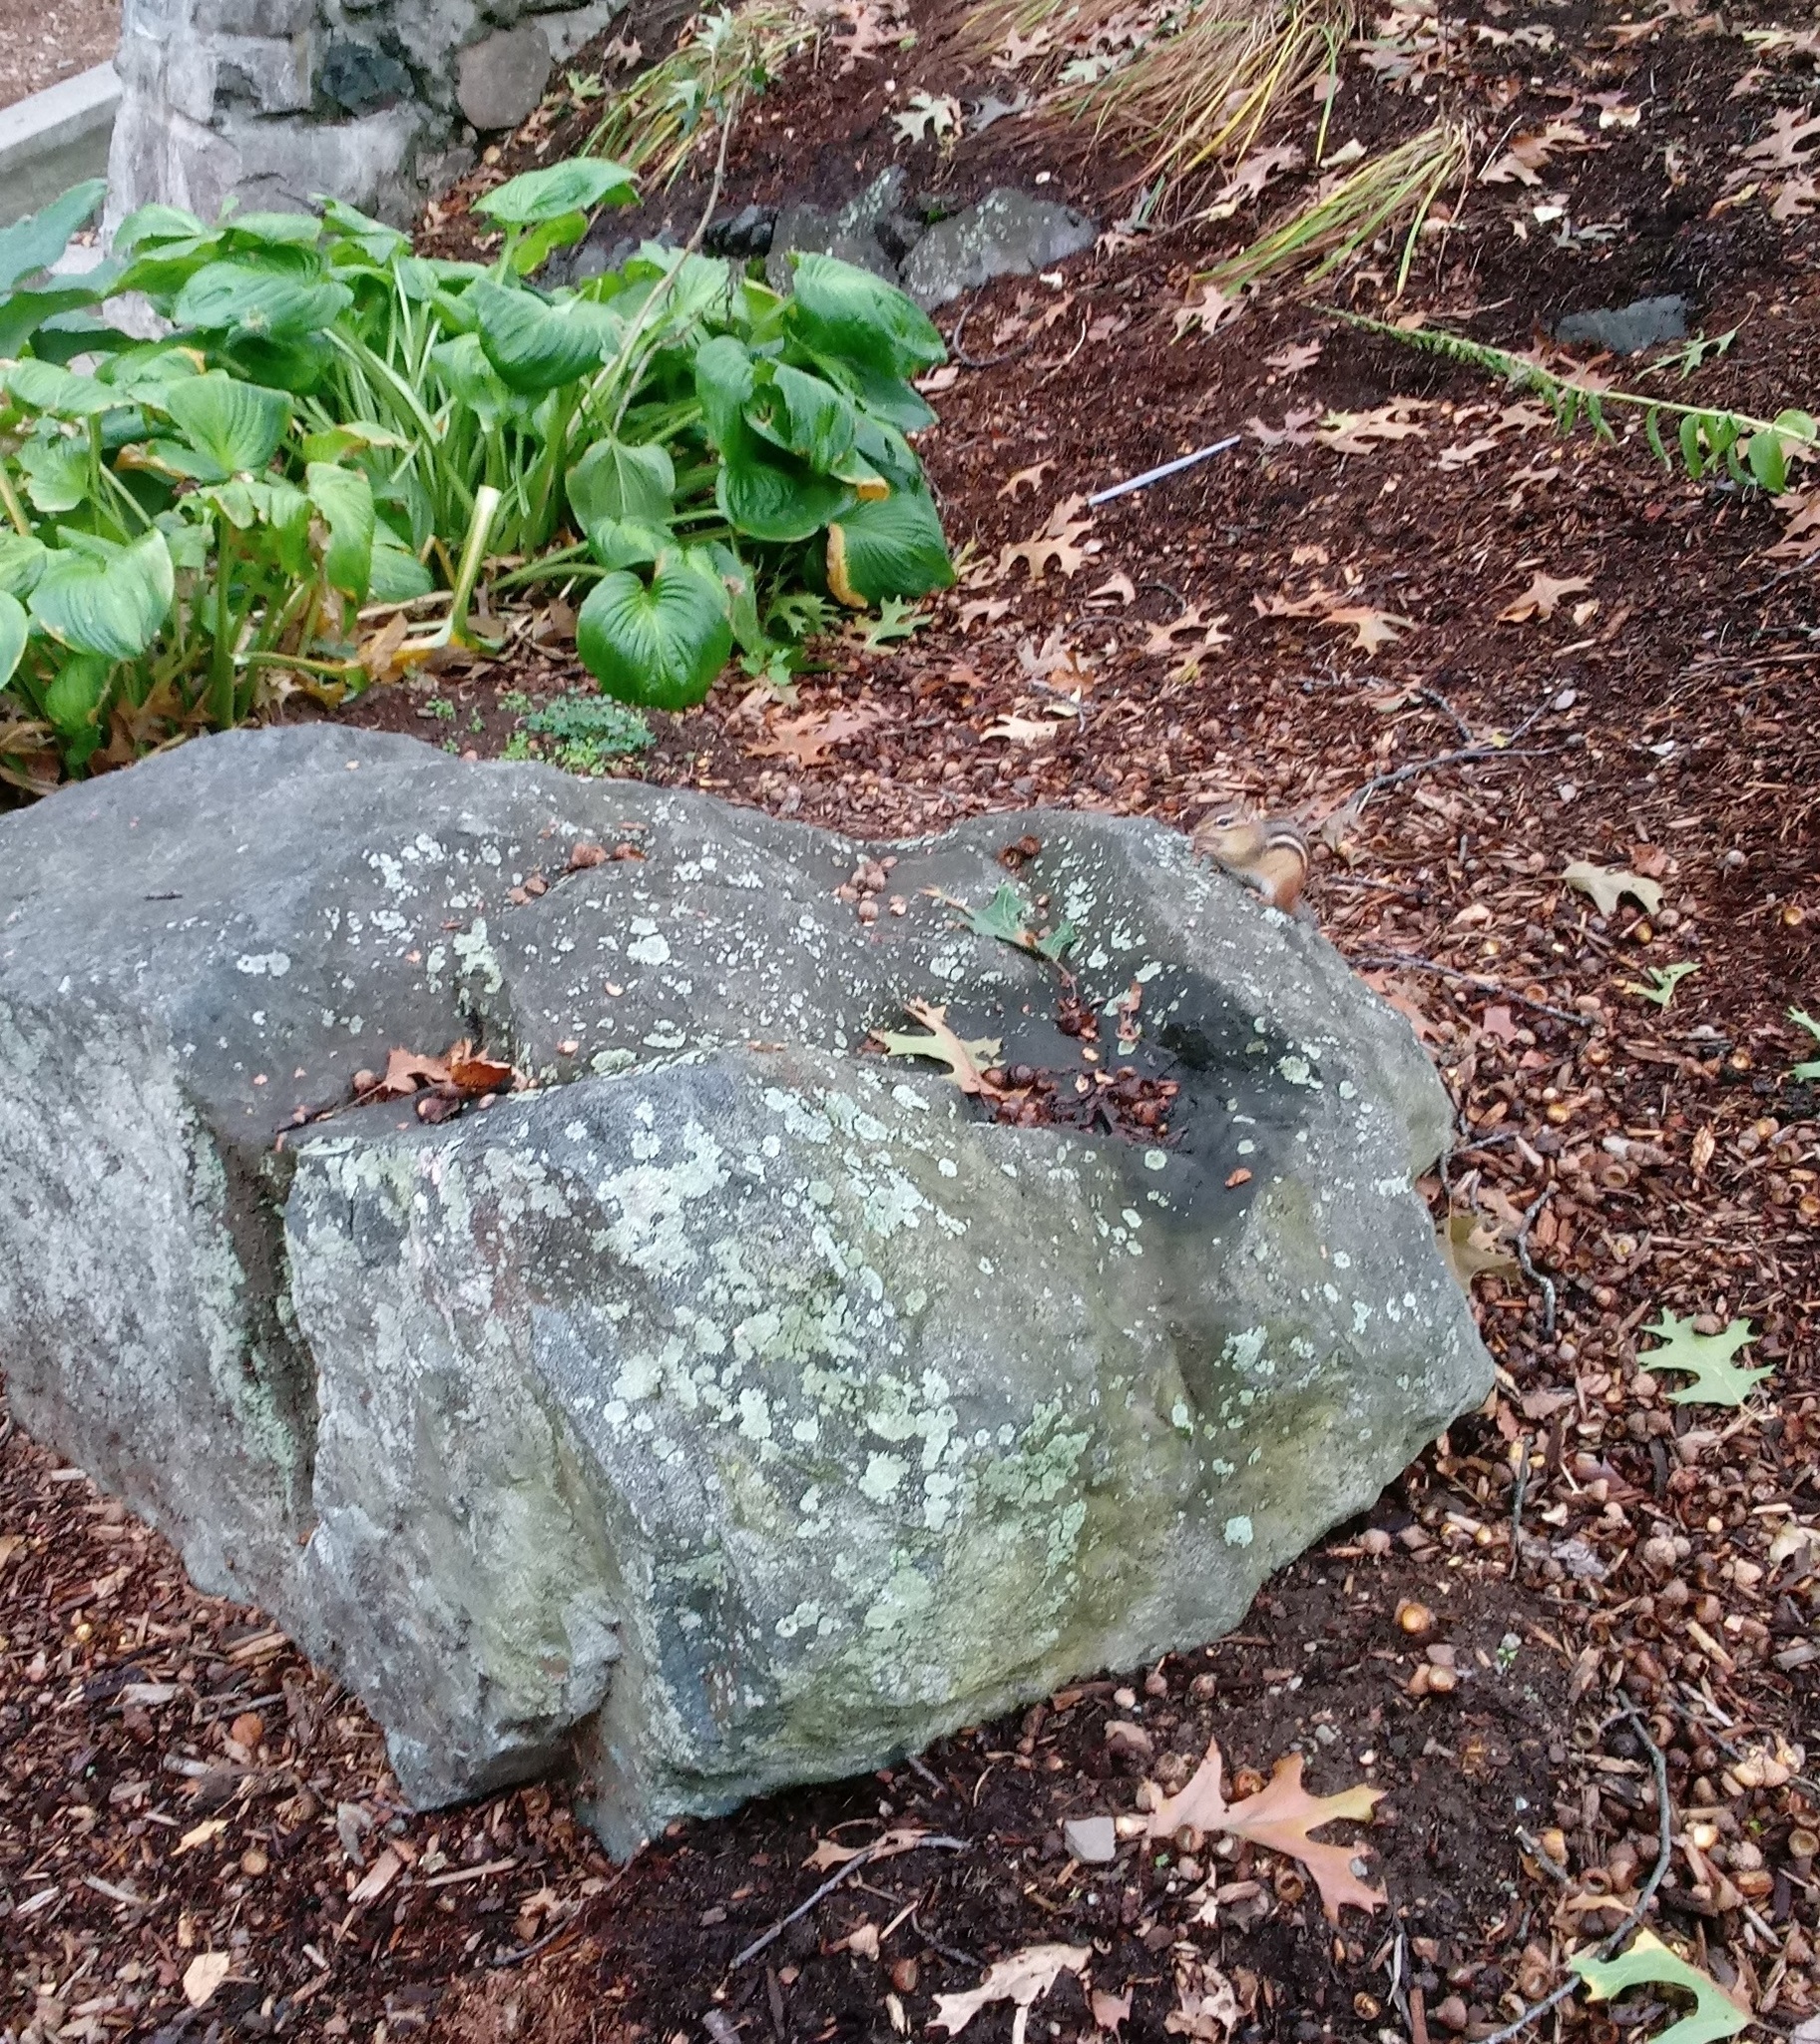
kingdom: Animalia
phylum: Chordata
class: Mammalia
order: Rodentia
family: Sciuridae
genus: Tamias
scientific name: Tamias striatus
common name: Eastern chipmunk
